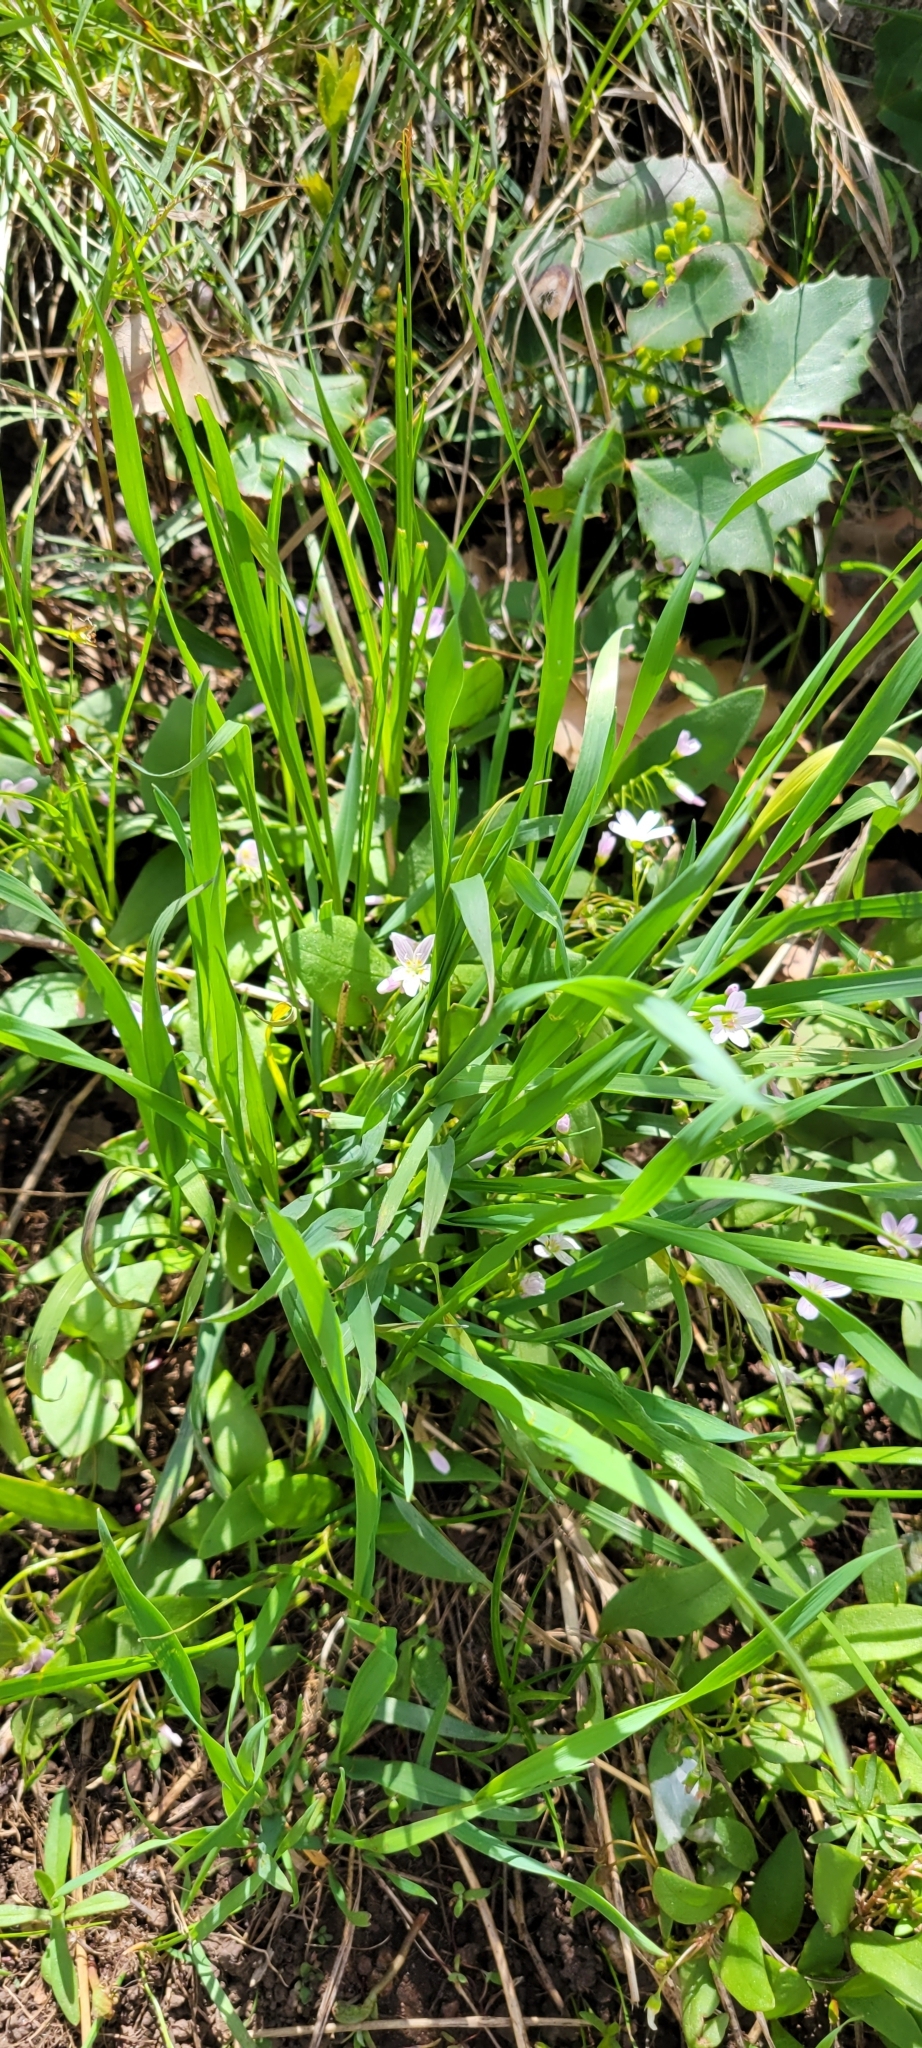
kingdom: Plantae
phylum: Tracheophyta
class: Magnoliopsida
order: Caryophyllales
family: Montiaceae
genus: Claytonia
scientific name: Claytonia lanceolata
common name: Western spring-beauty
